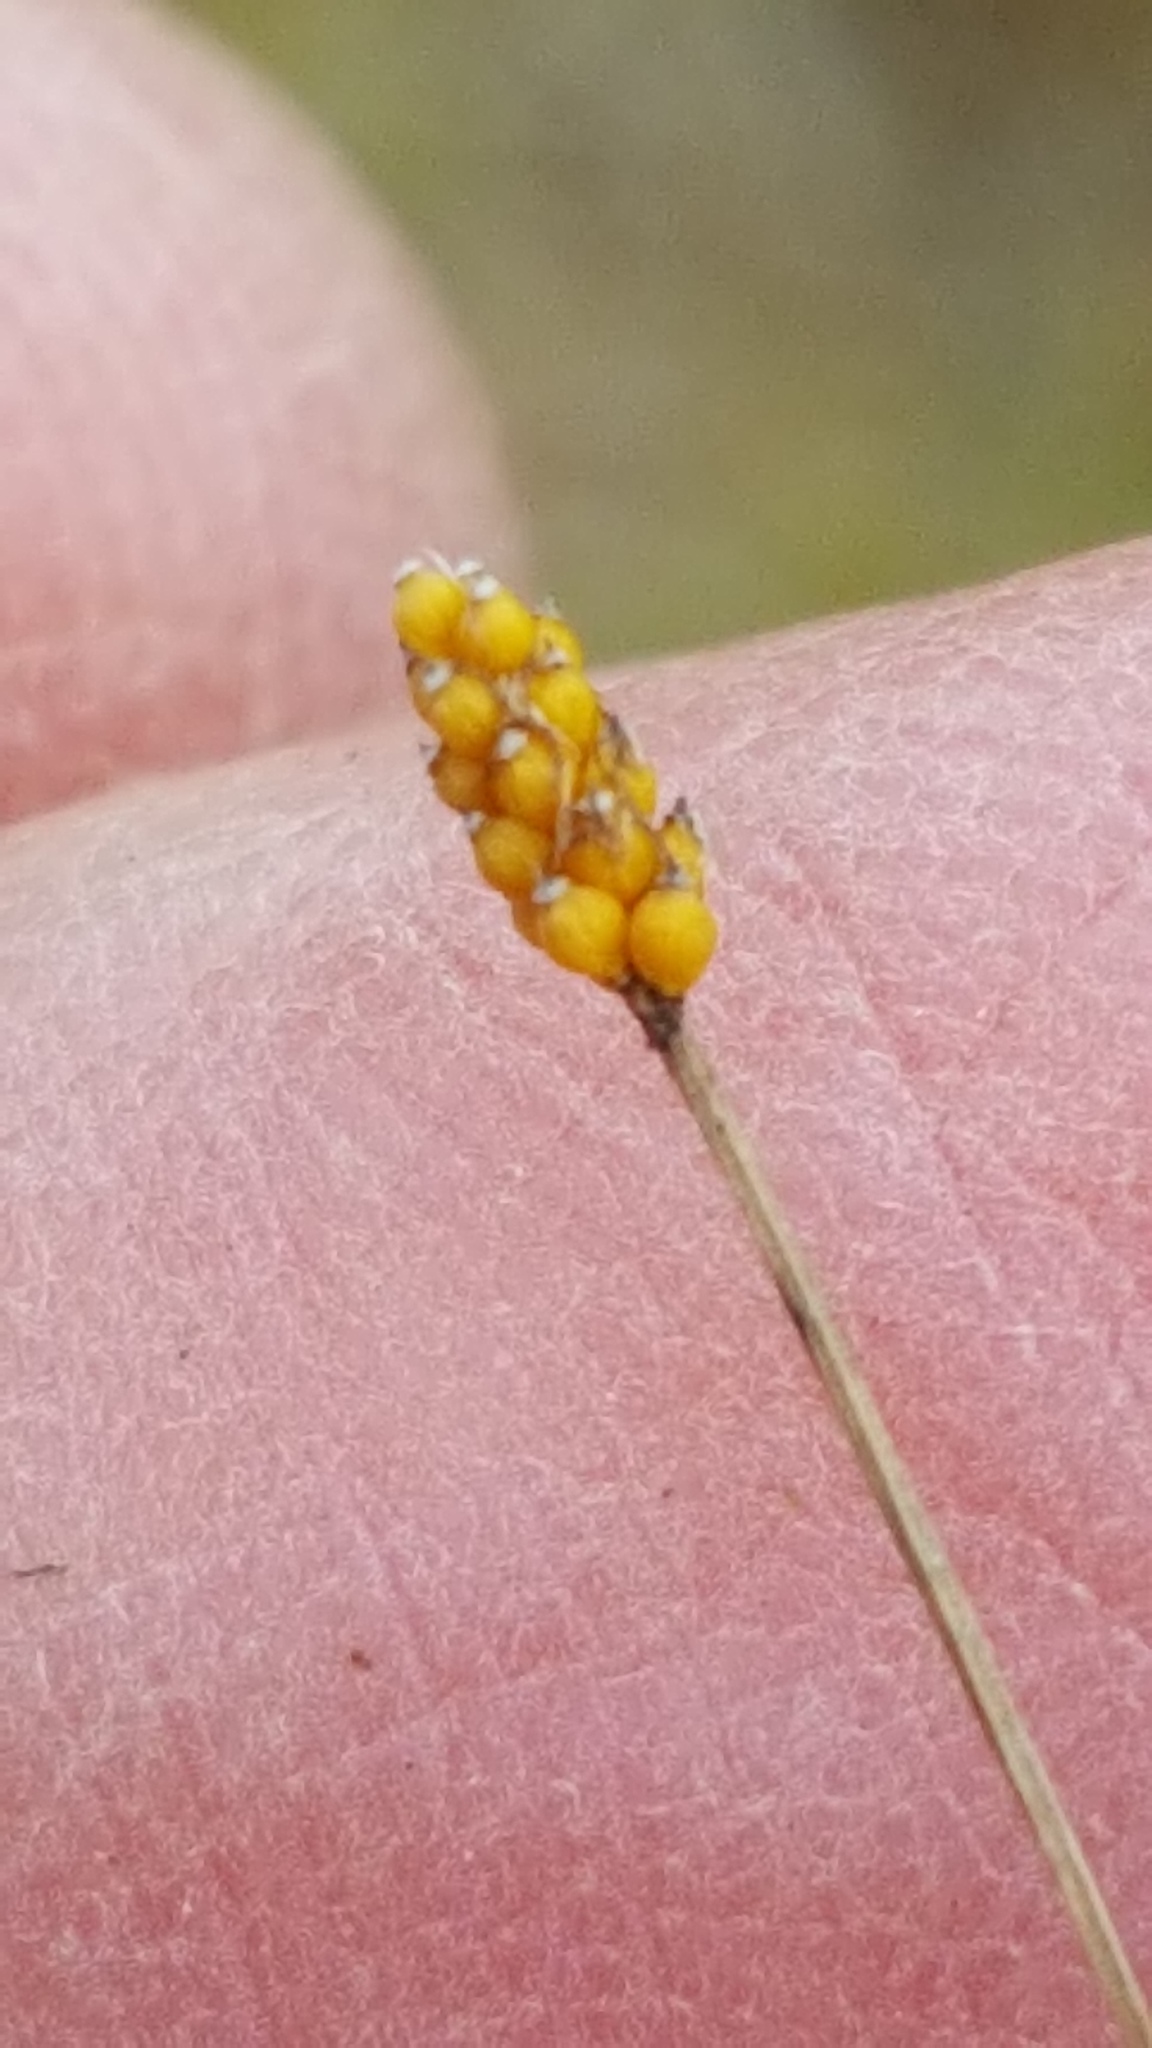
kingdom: Plantae
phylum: Tracheophyta
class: Liliopsida
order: Poales
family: Cyperaceae
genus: Eleocharis
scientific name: Eleocharis nitida
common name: Neat spikerush
